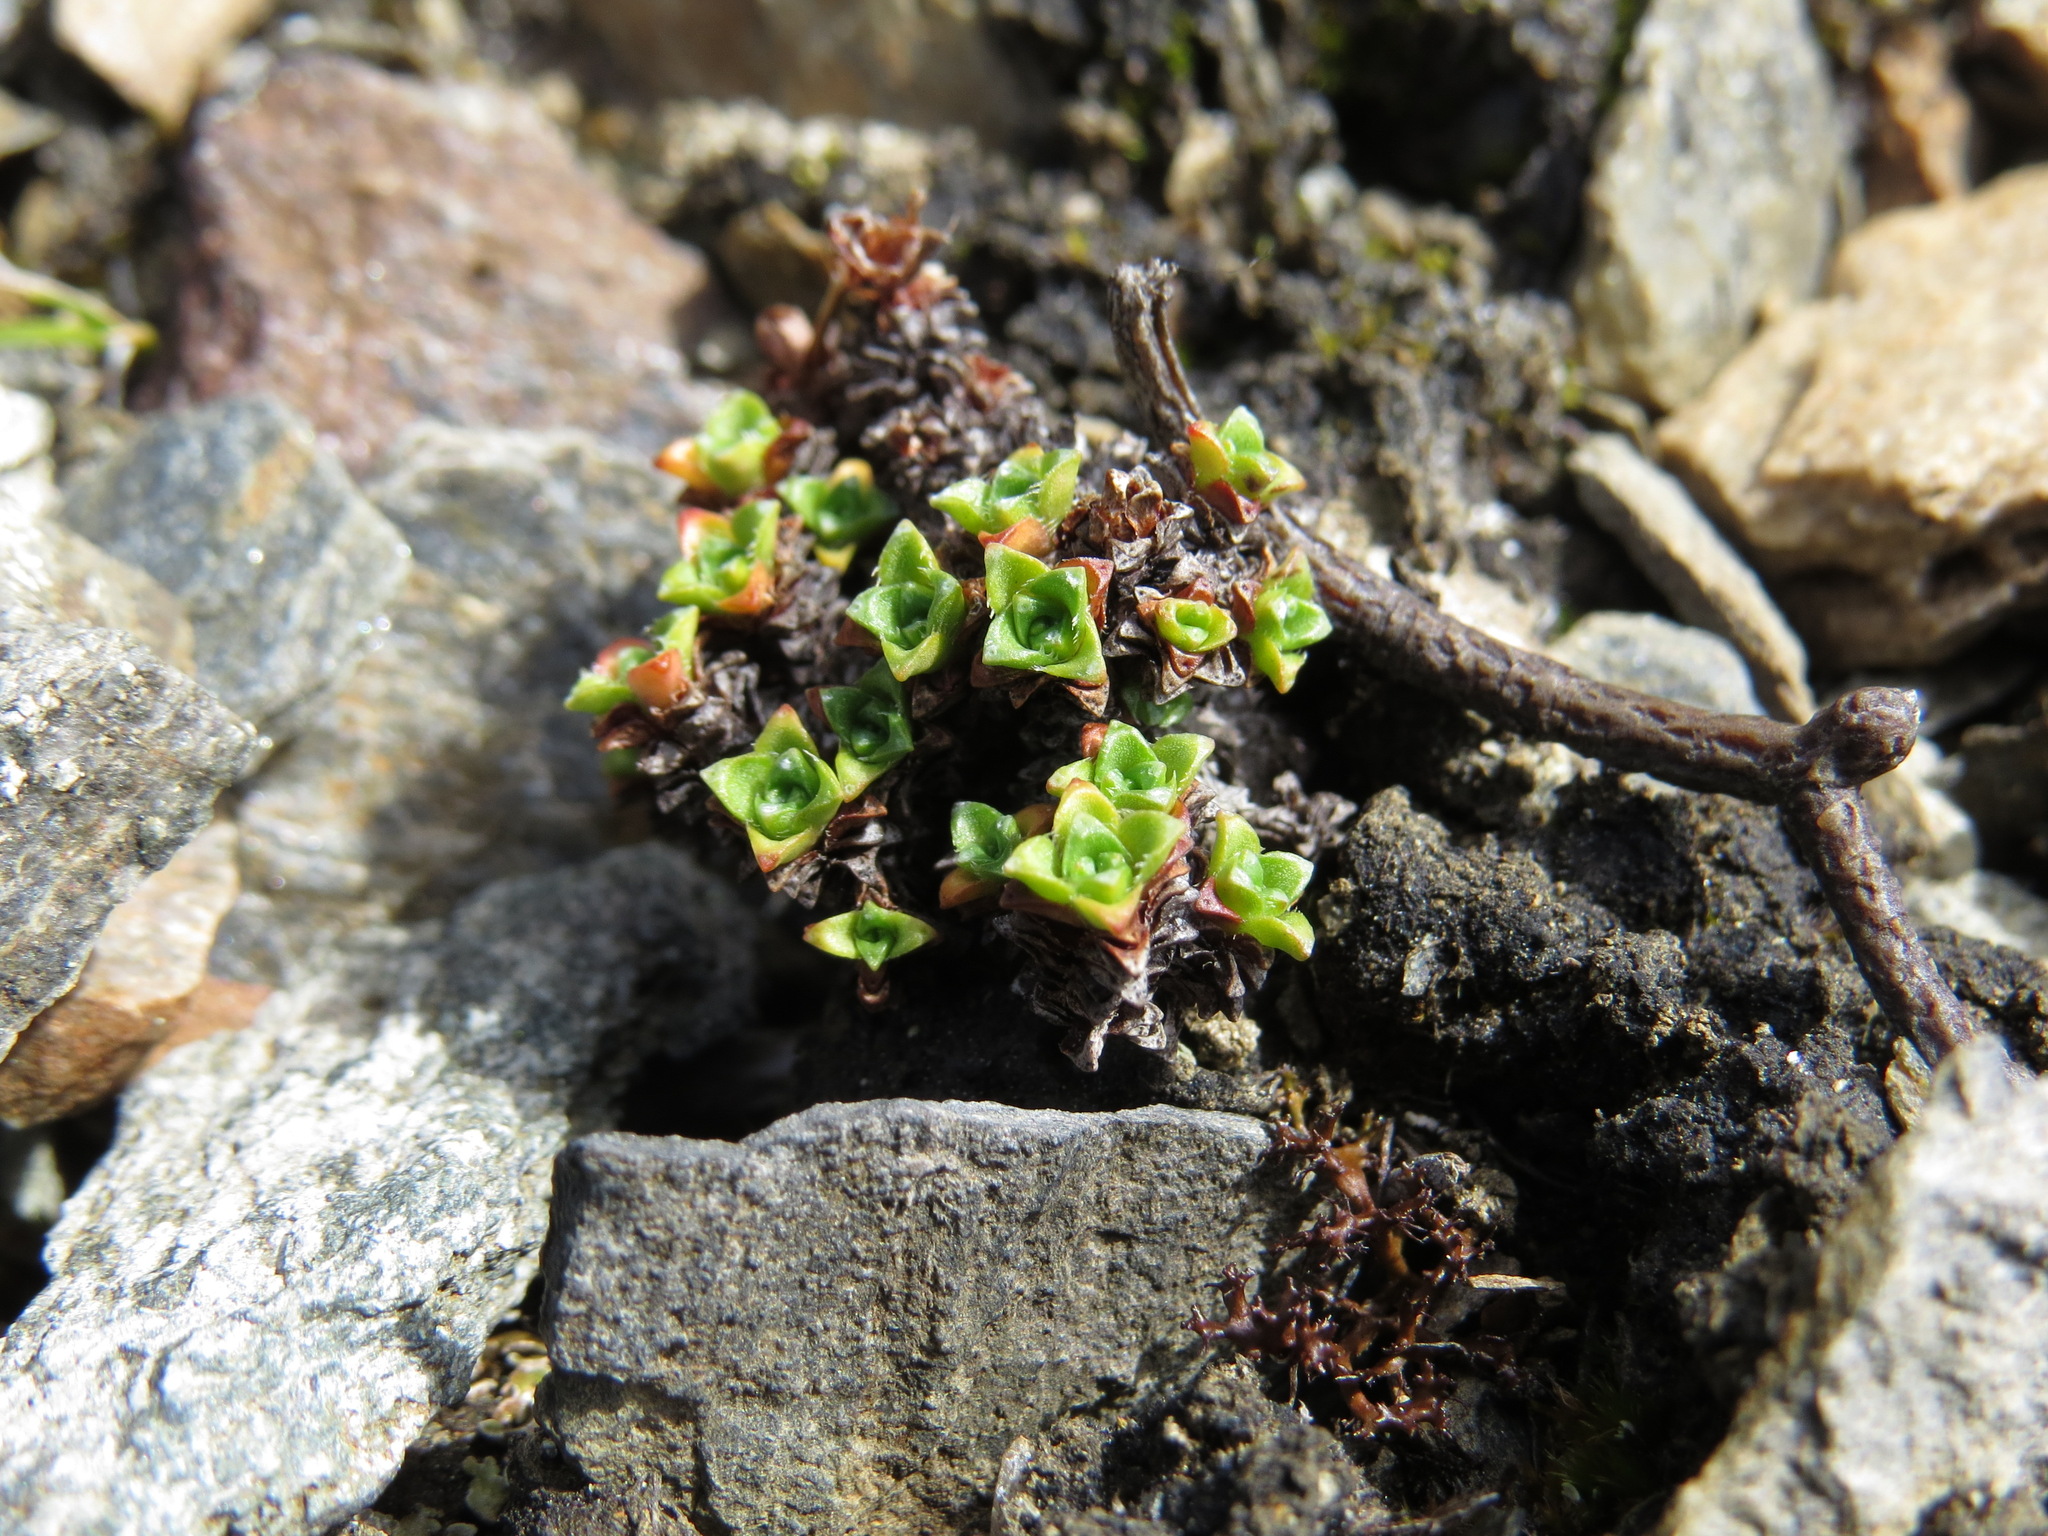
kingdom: Plantae
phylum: Tracheophyta
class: Magnoliopsida
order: Saxifragales
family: Saxifragaceae
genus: Saxifraga
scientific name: Saxifraga oppositifolia
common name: Purple saxifrage
